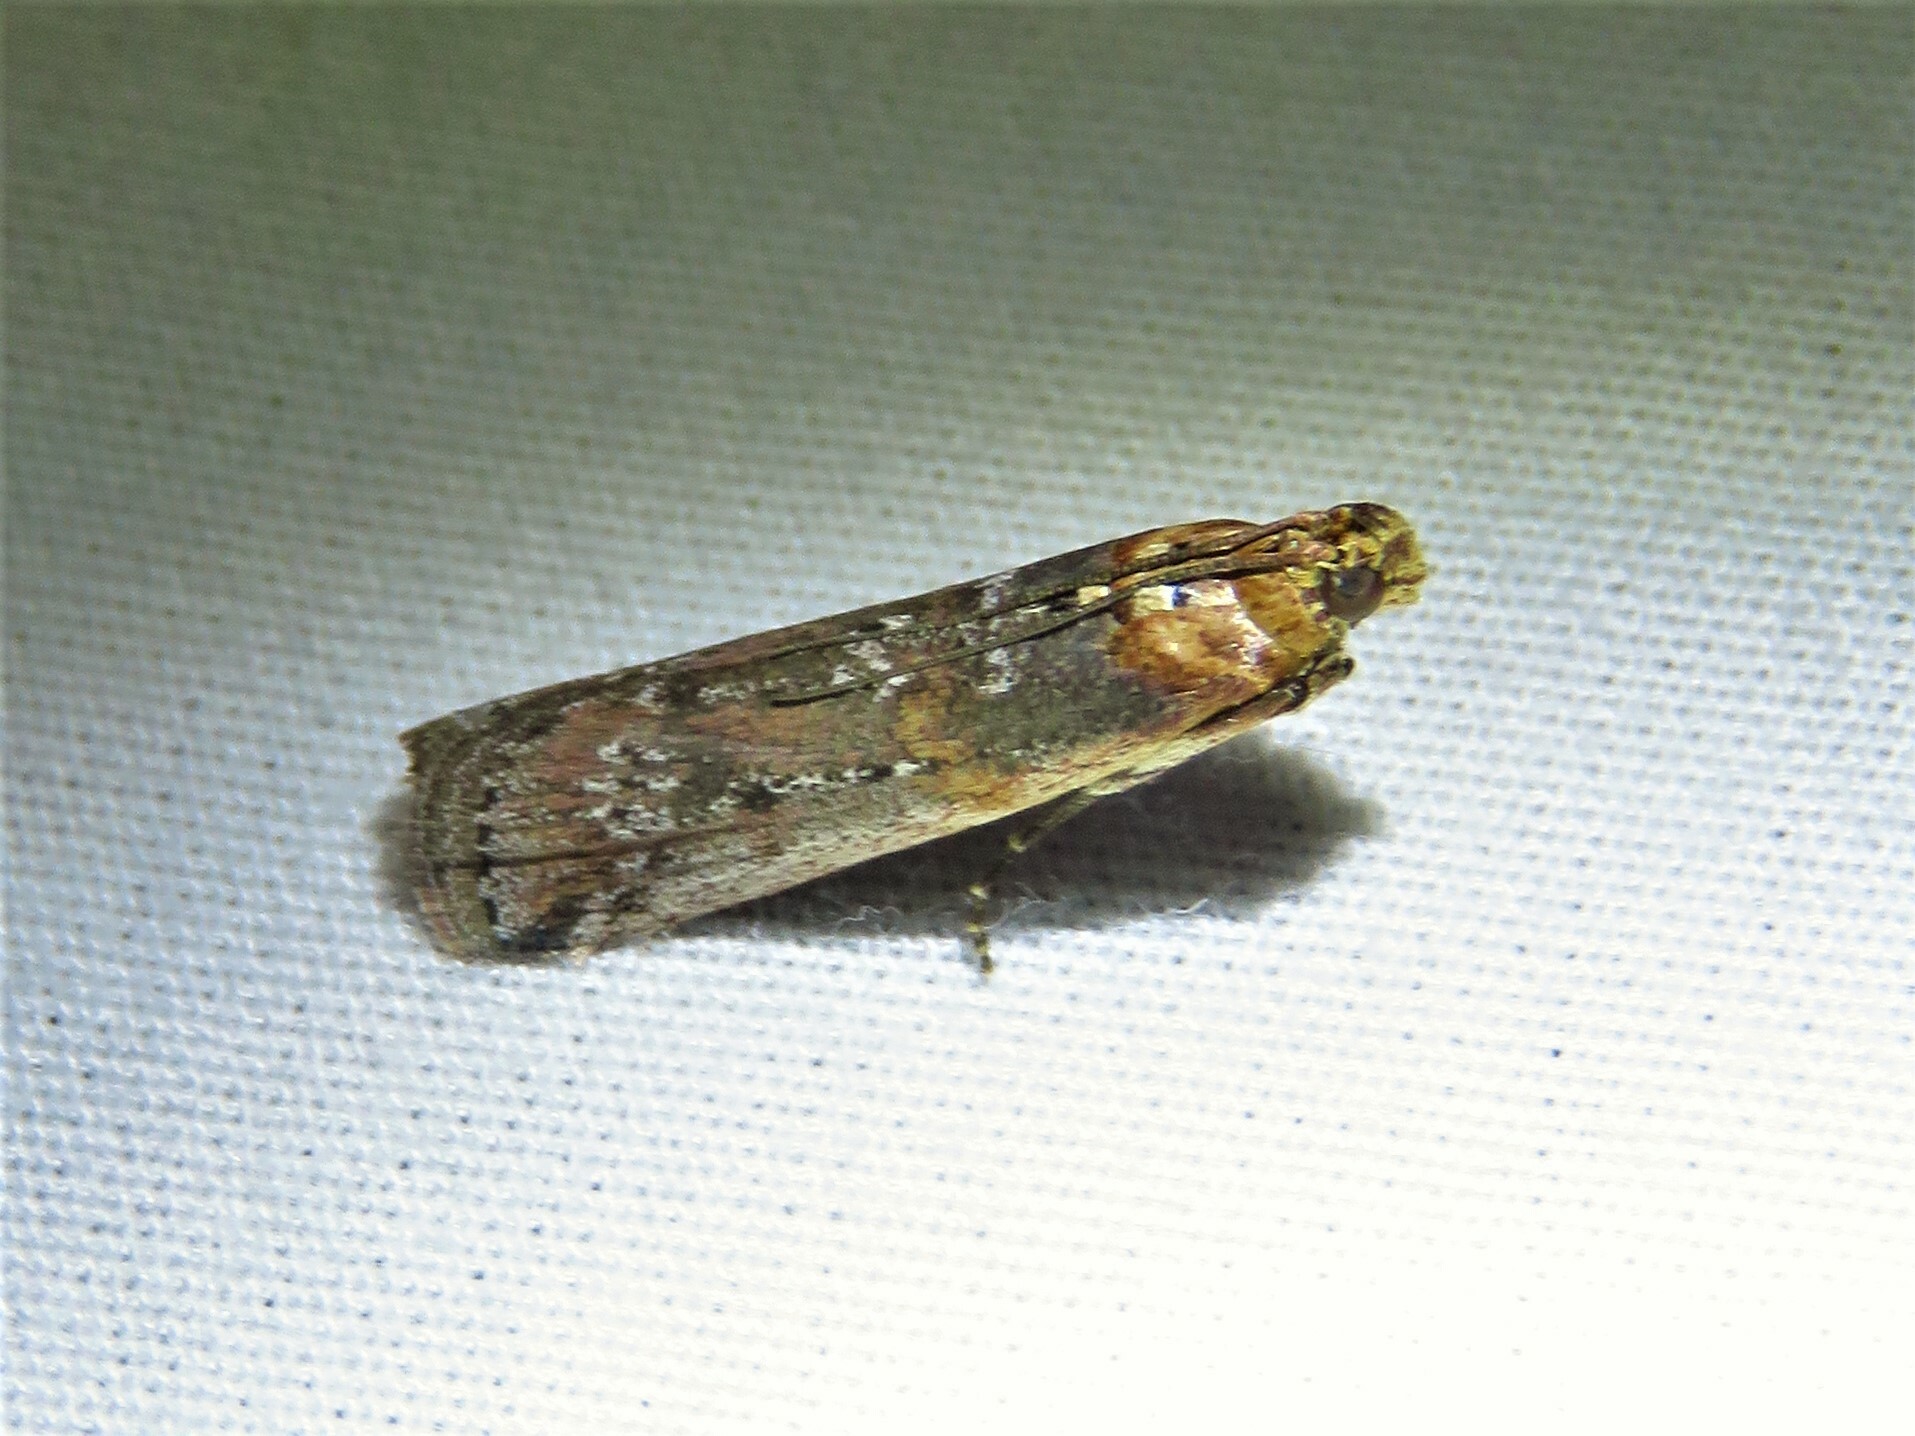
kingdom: Animalia
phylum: Arthropoda
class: Insecta
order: Lepidoptera
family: Pyralidae
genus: Adelphia
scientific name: Adelphia petrella
